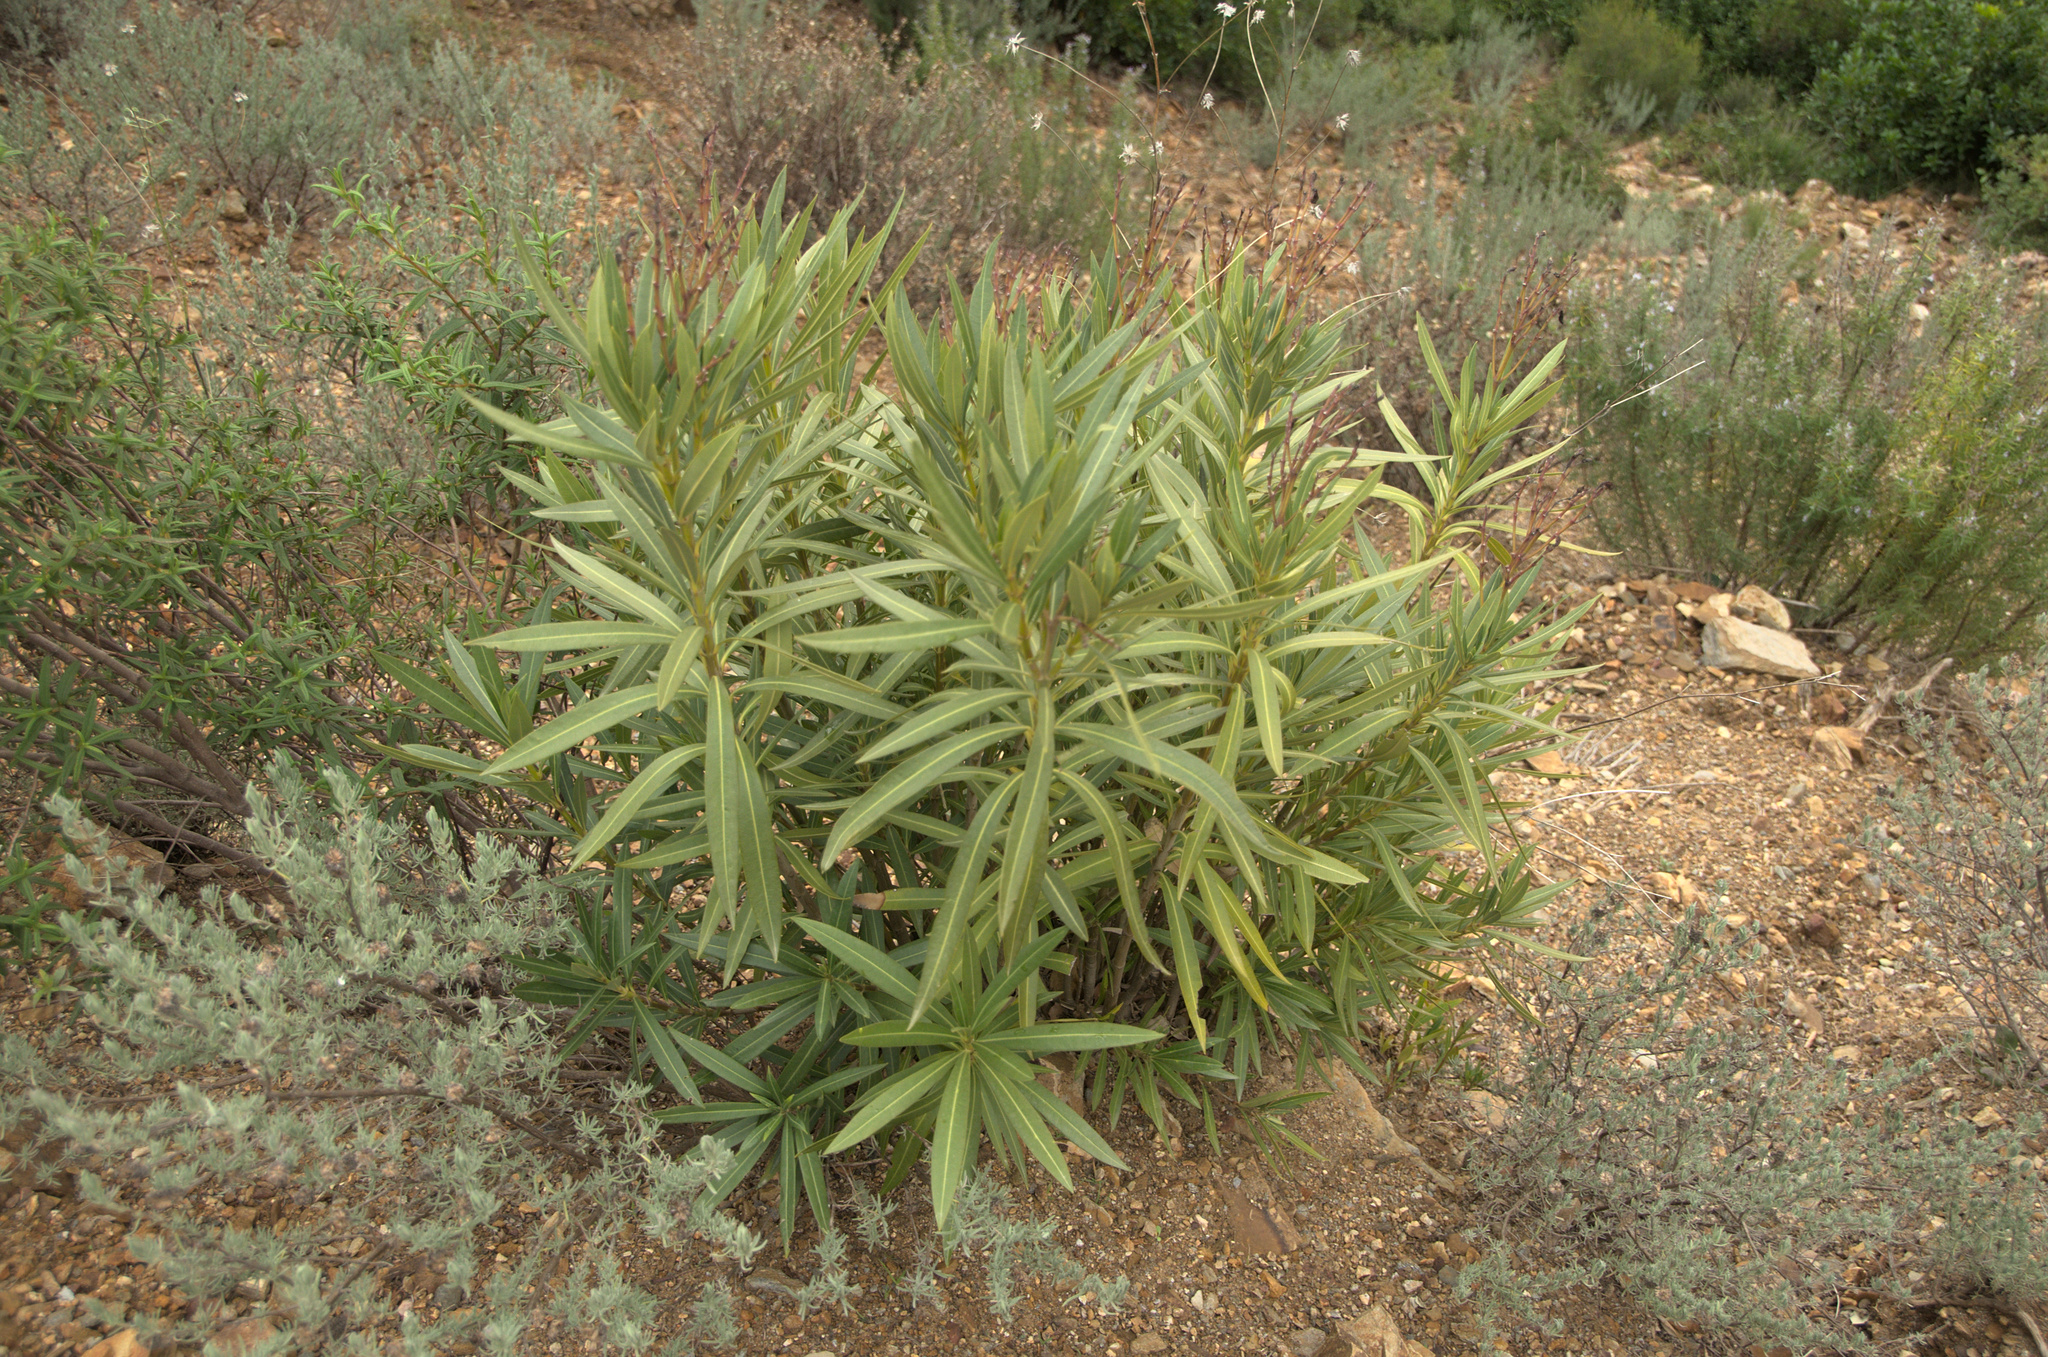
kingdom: Plantae
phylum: Tracheophyta
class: Magnoliopsida
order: Gentianales
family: Apocynaceae
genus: Nerium
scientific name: Nerium oleander
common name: Oleander
